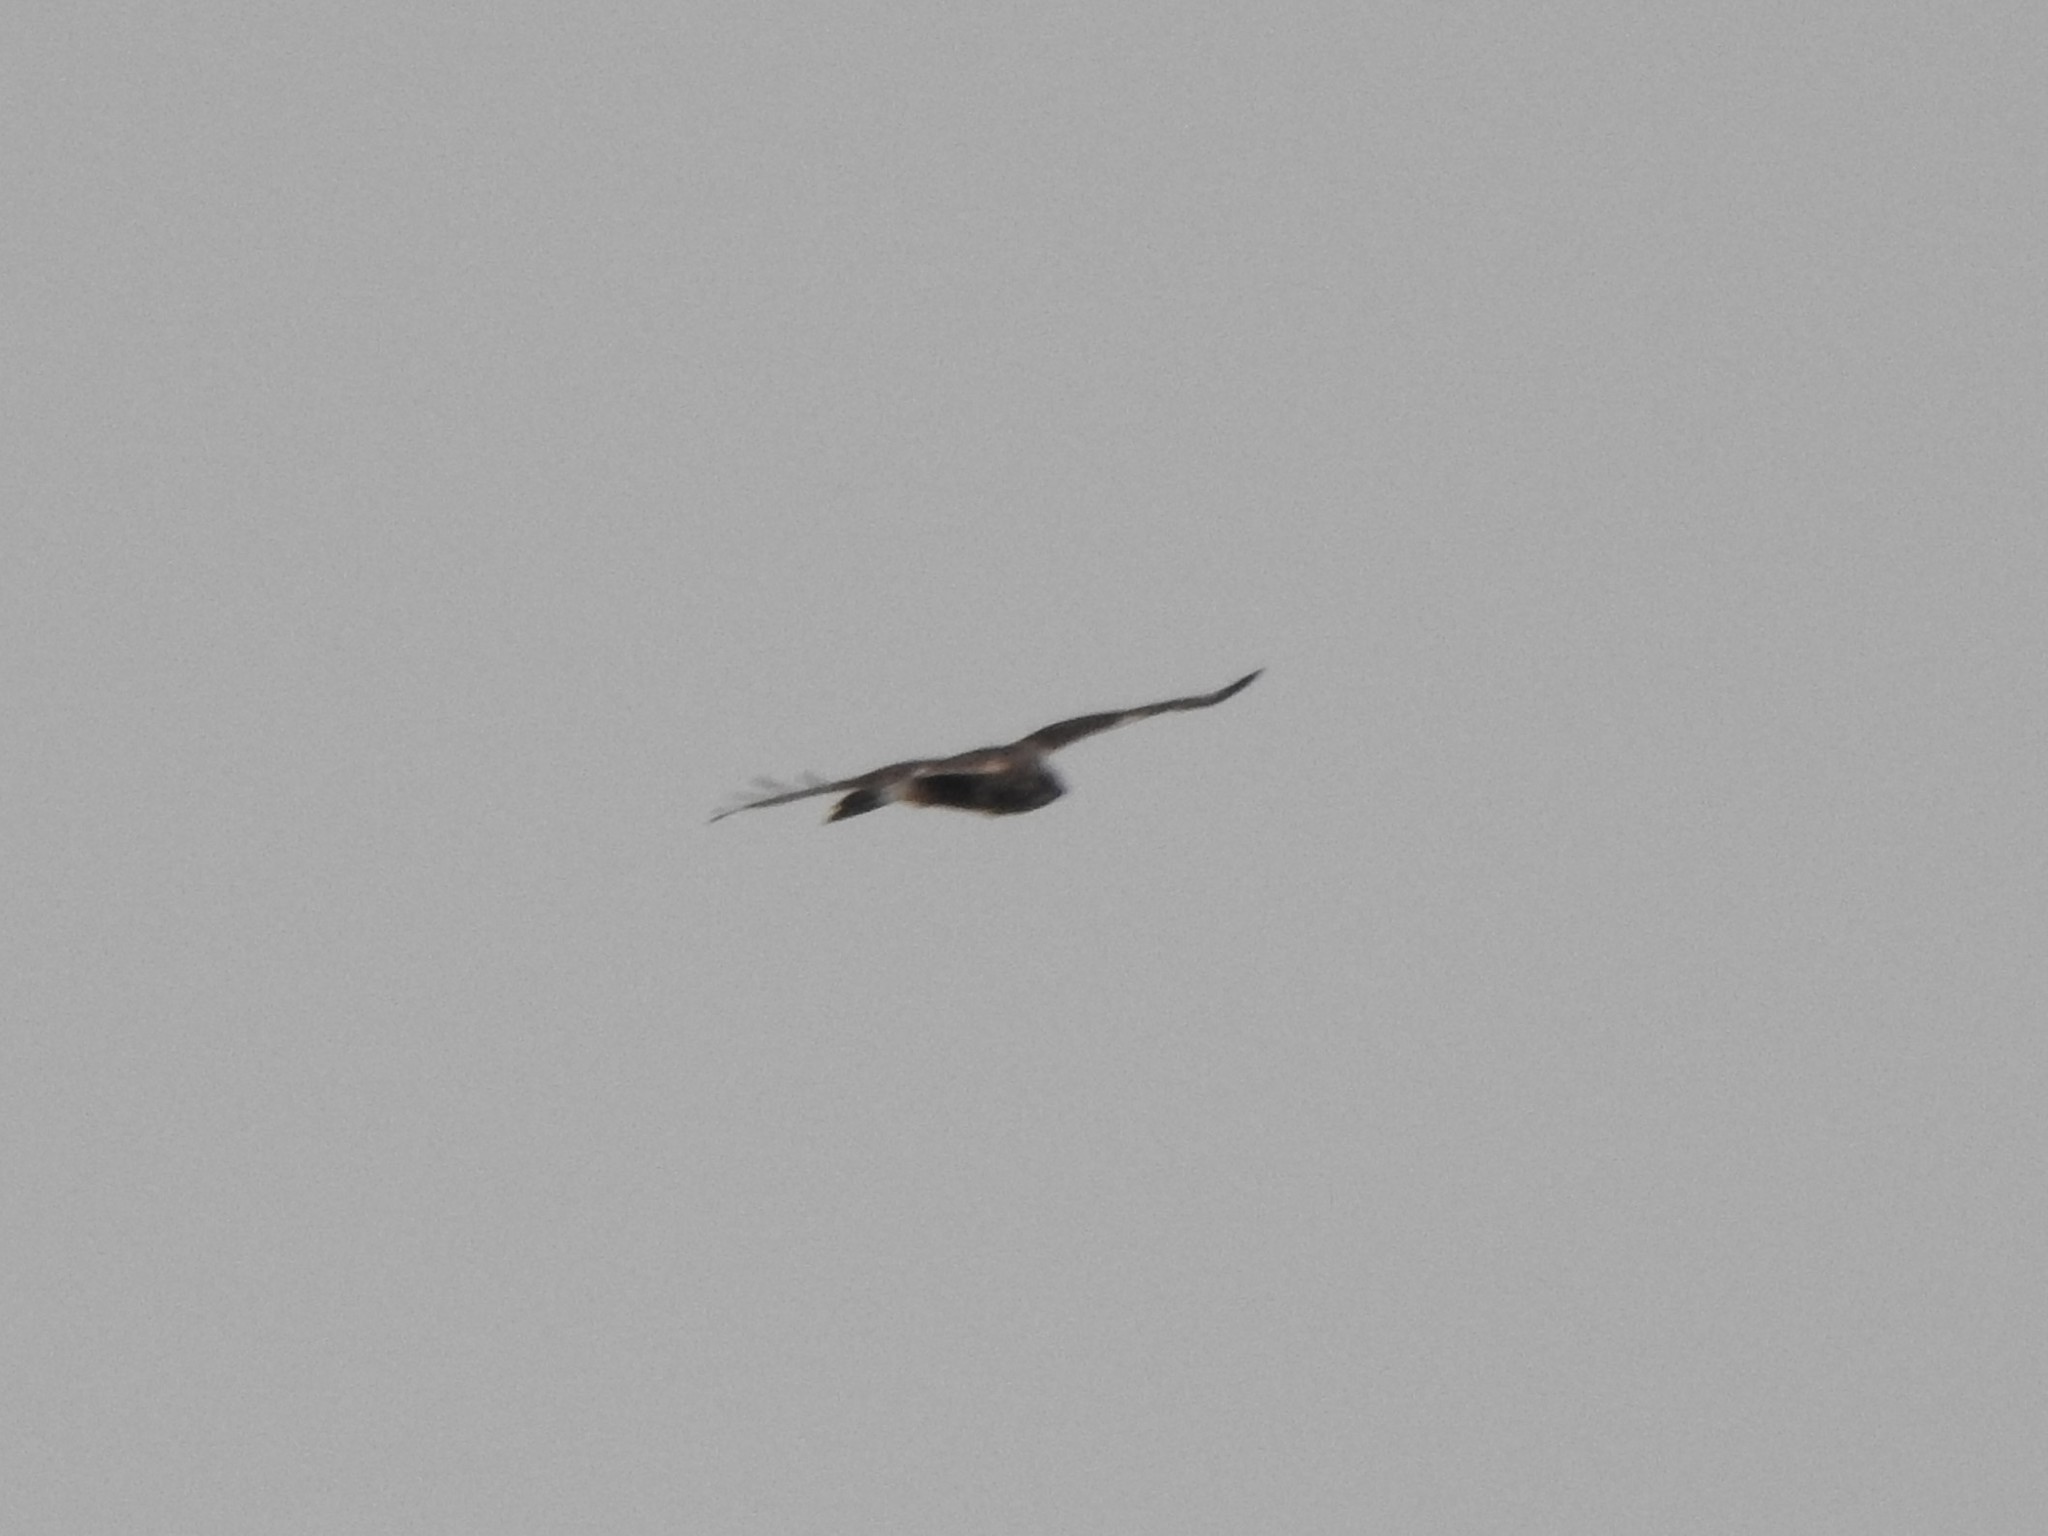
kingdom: Animalia
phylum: Chordata
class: Aves
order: Accipitriformes
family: Accipitridae
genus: Buteo
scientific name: Buteo lagopus
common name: Rough-legged buzzard
